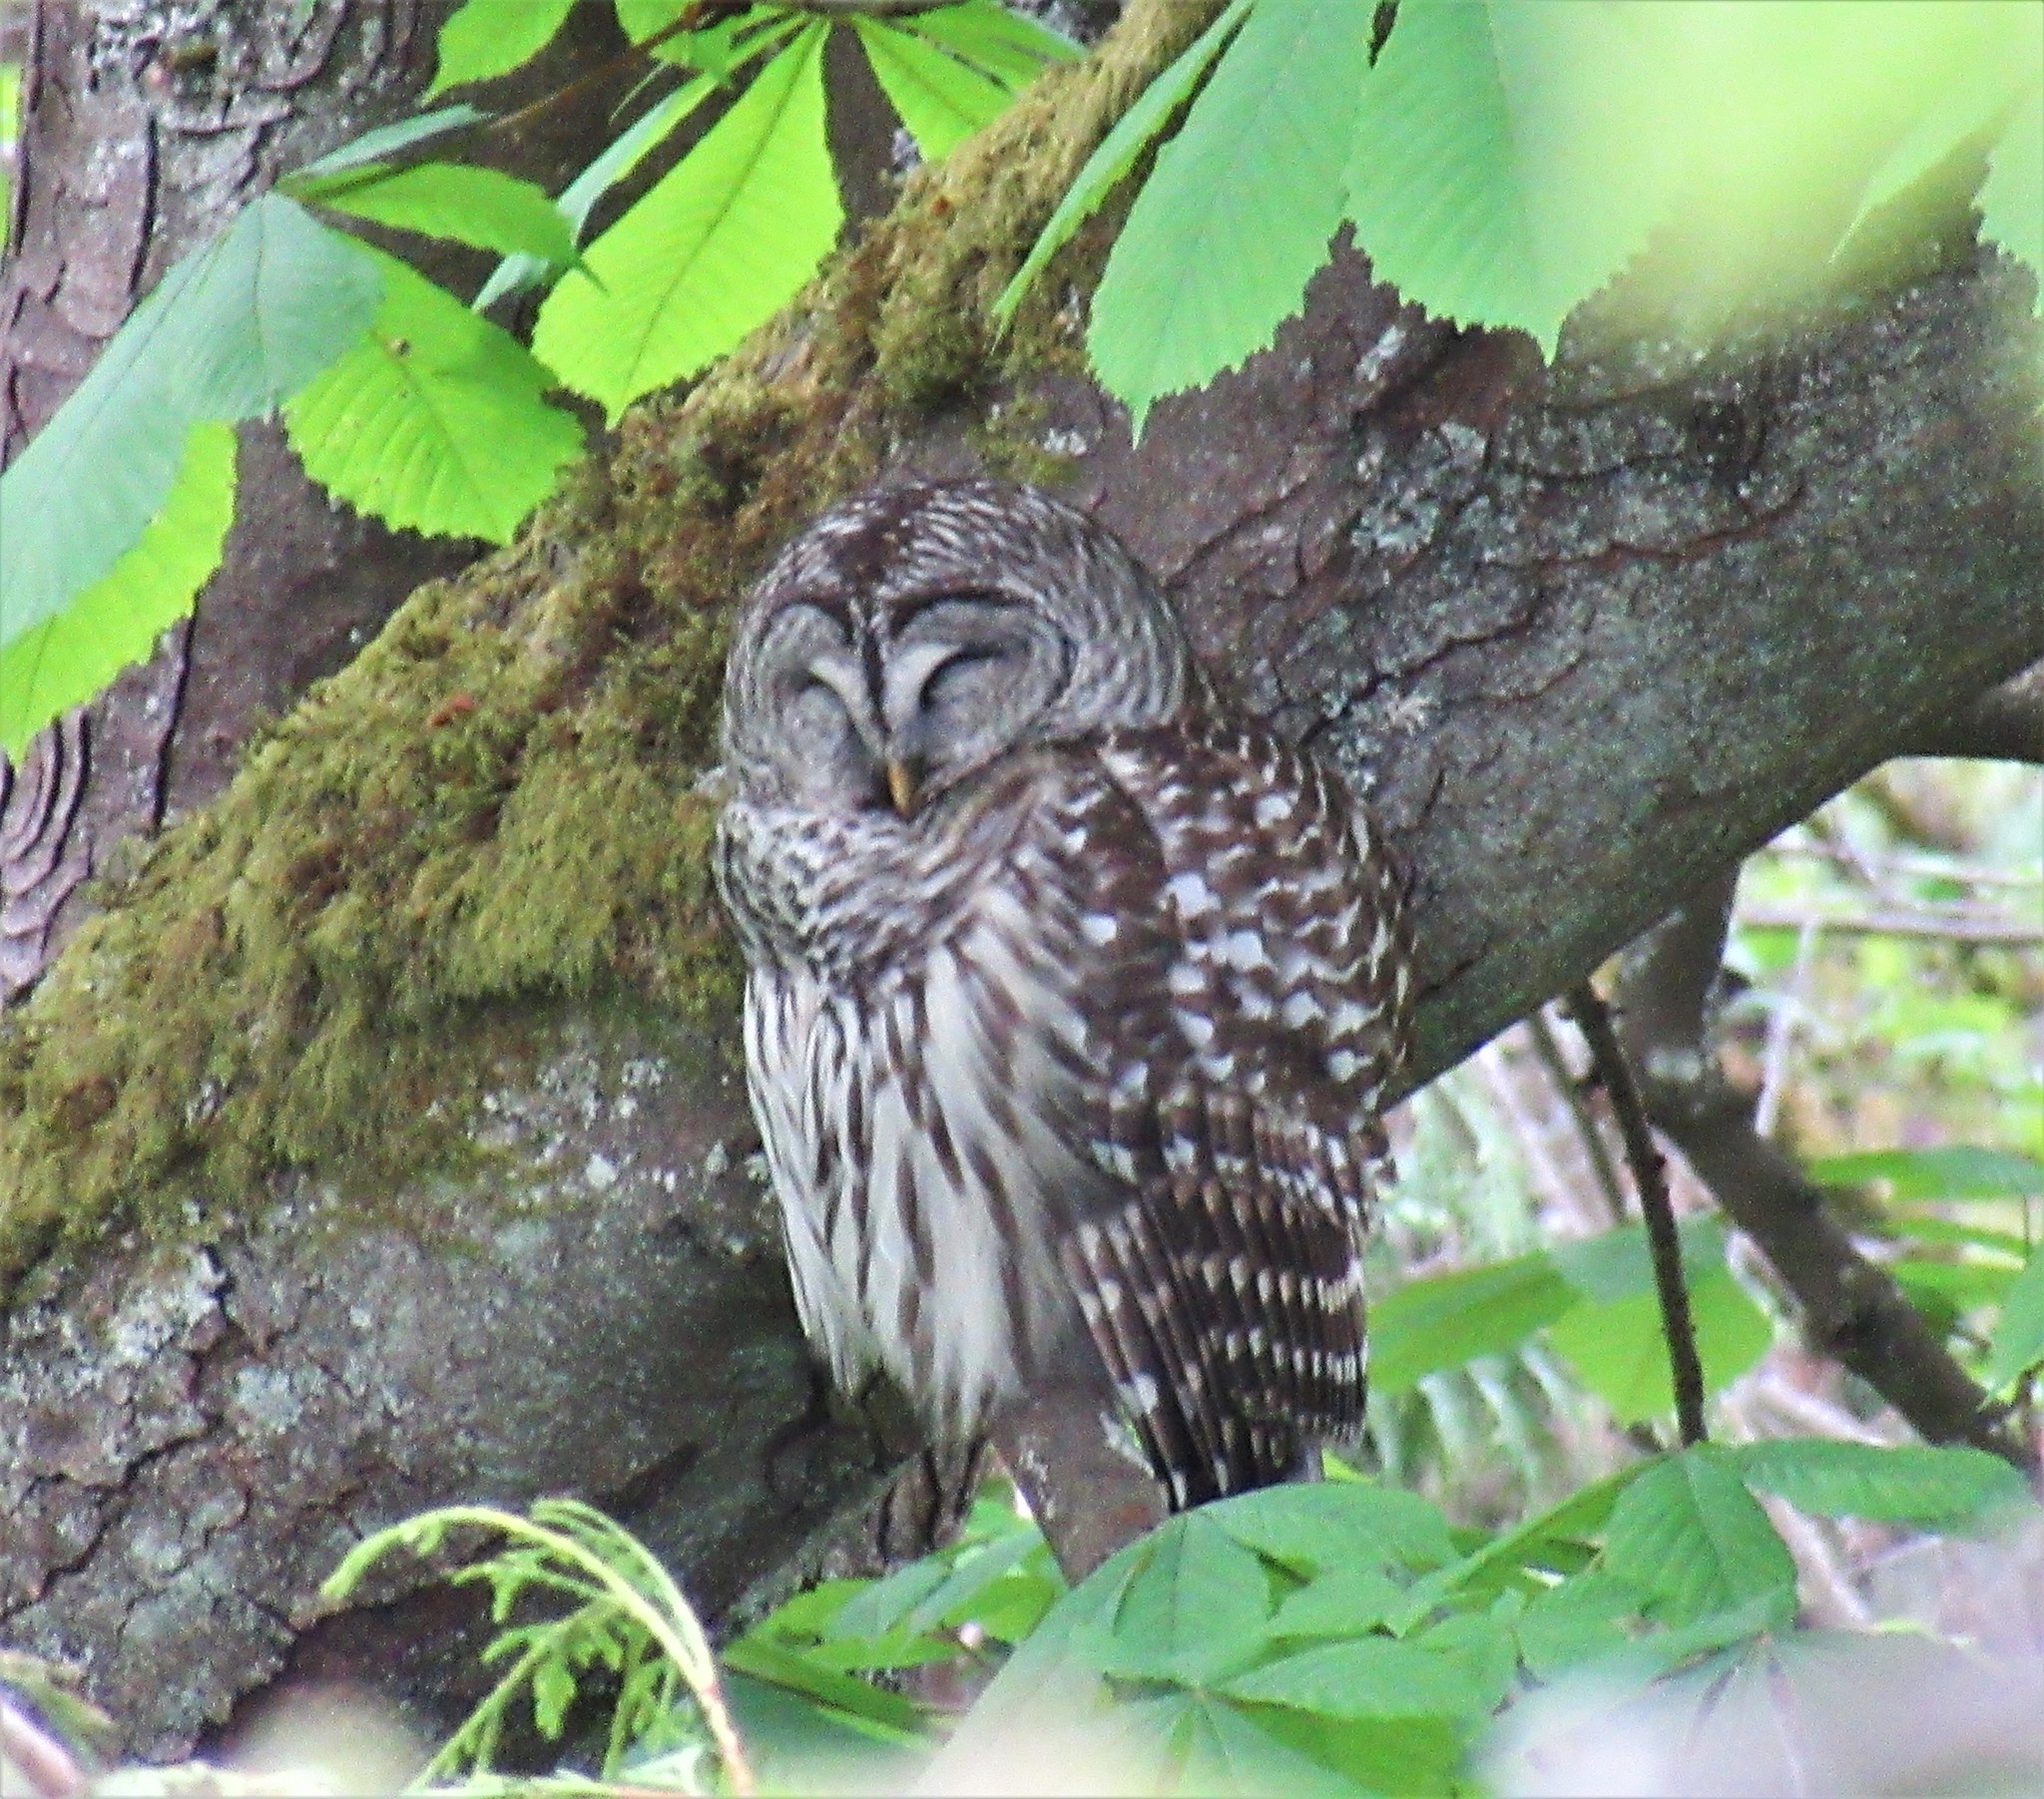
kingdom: Animalia
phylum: Chordata
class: Aves
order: Strigiformes
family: Strigidae
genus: Strix
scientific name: Strix varia
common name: Barred owl
